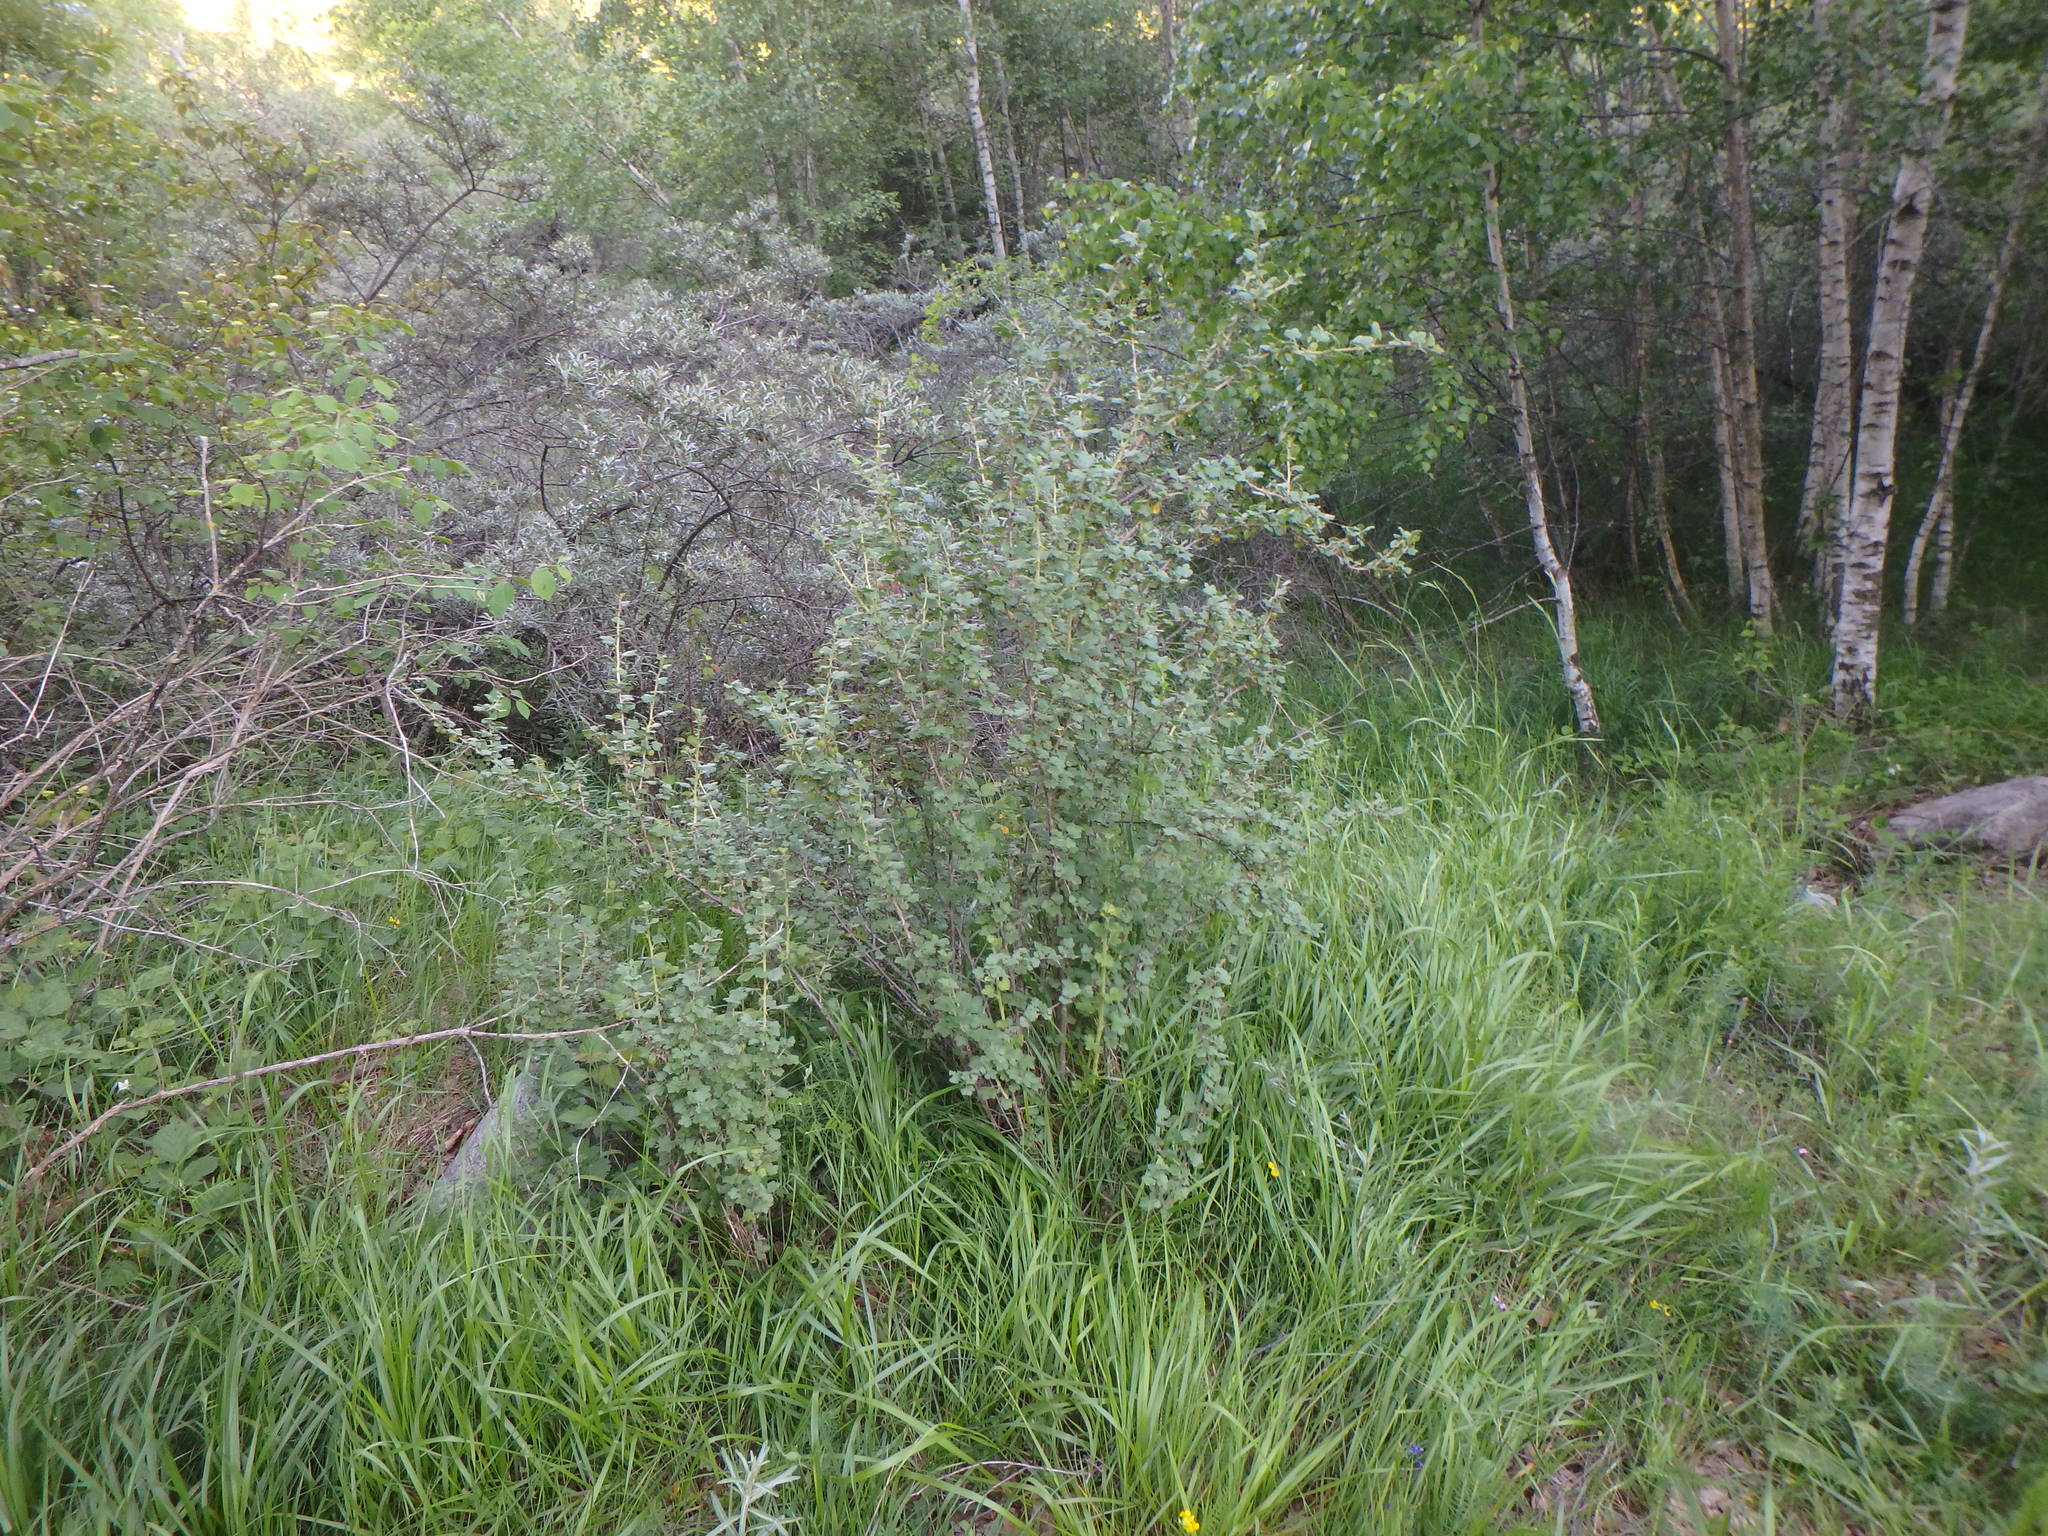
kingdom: Plantae
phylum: Tracheophyta
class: Magnoliopsida
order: Saxifragales
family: Grossulariaceae
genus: Ribes
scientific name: Ribes uva-crispa
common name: Gooseberry
